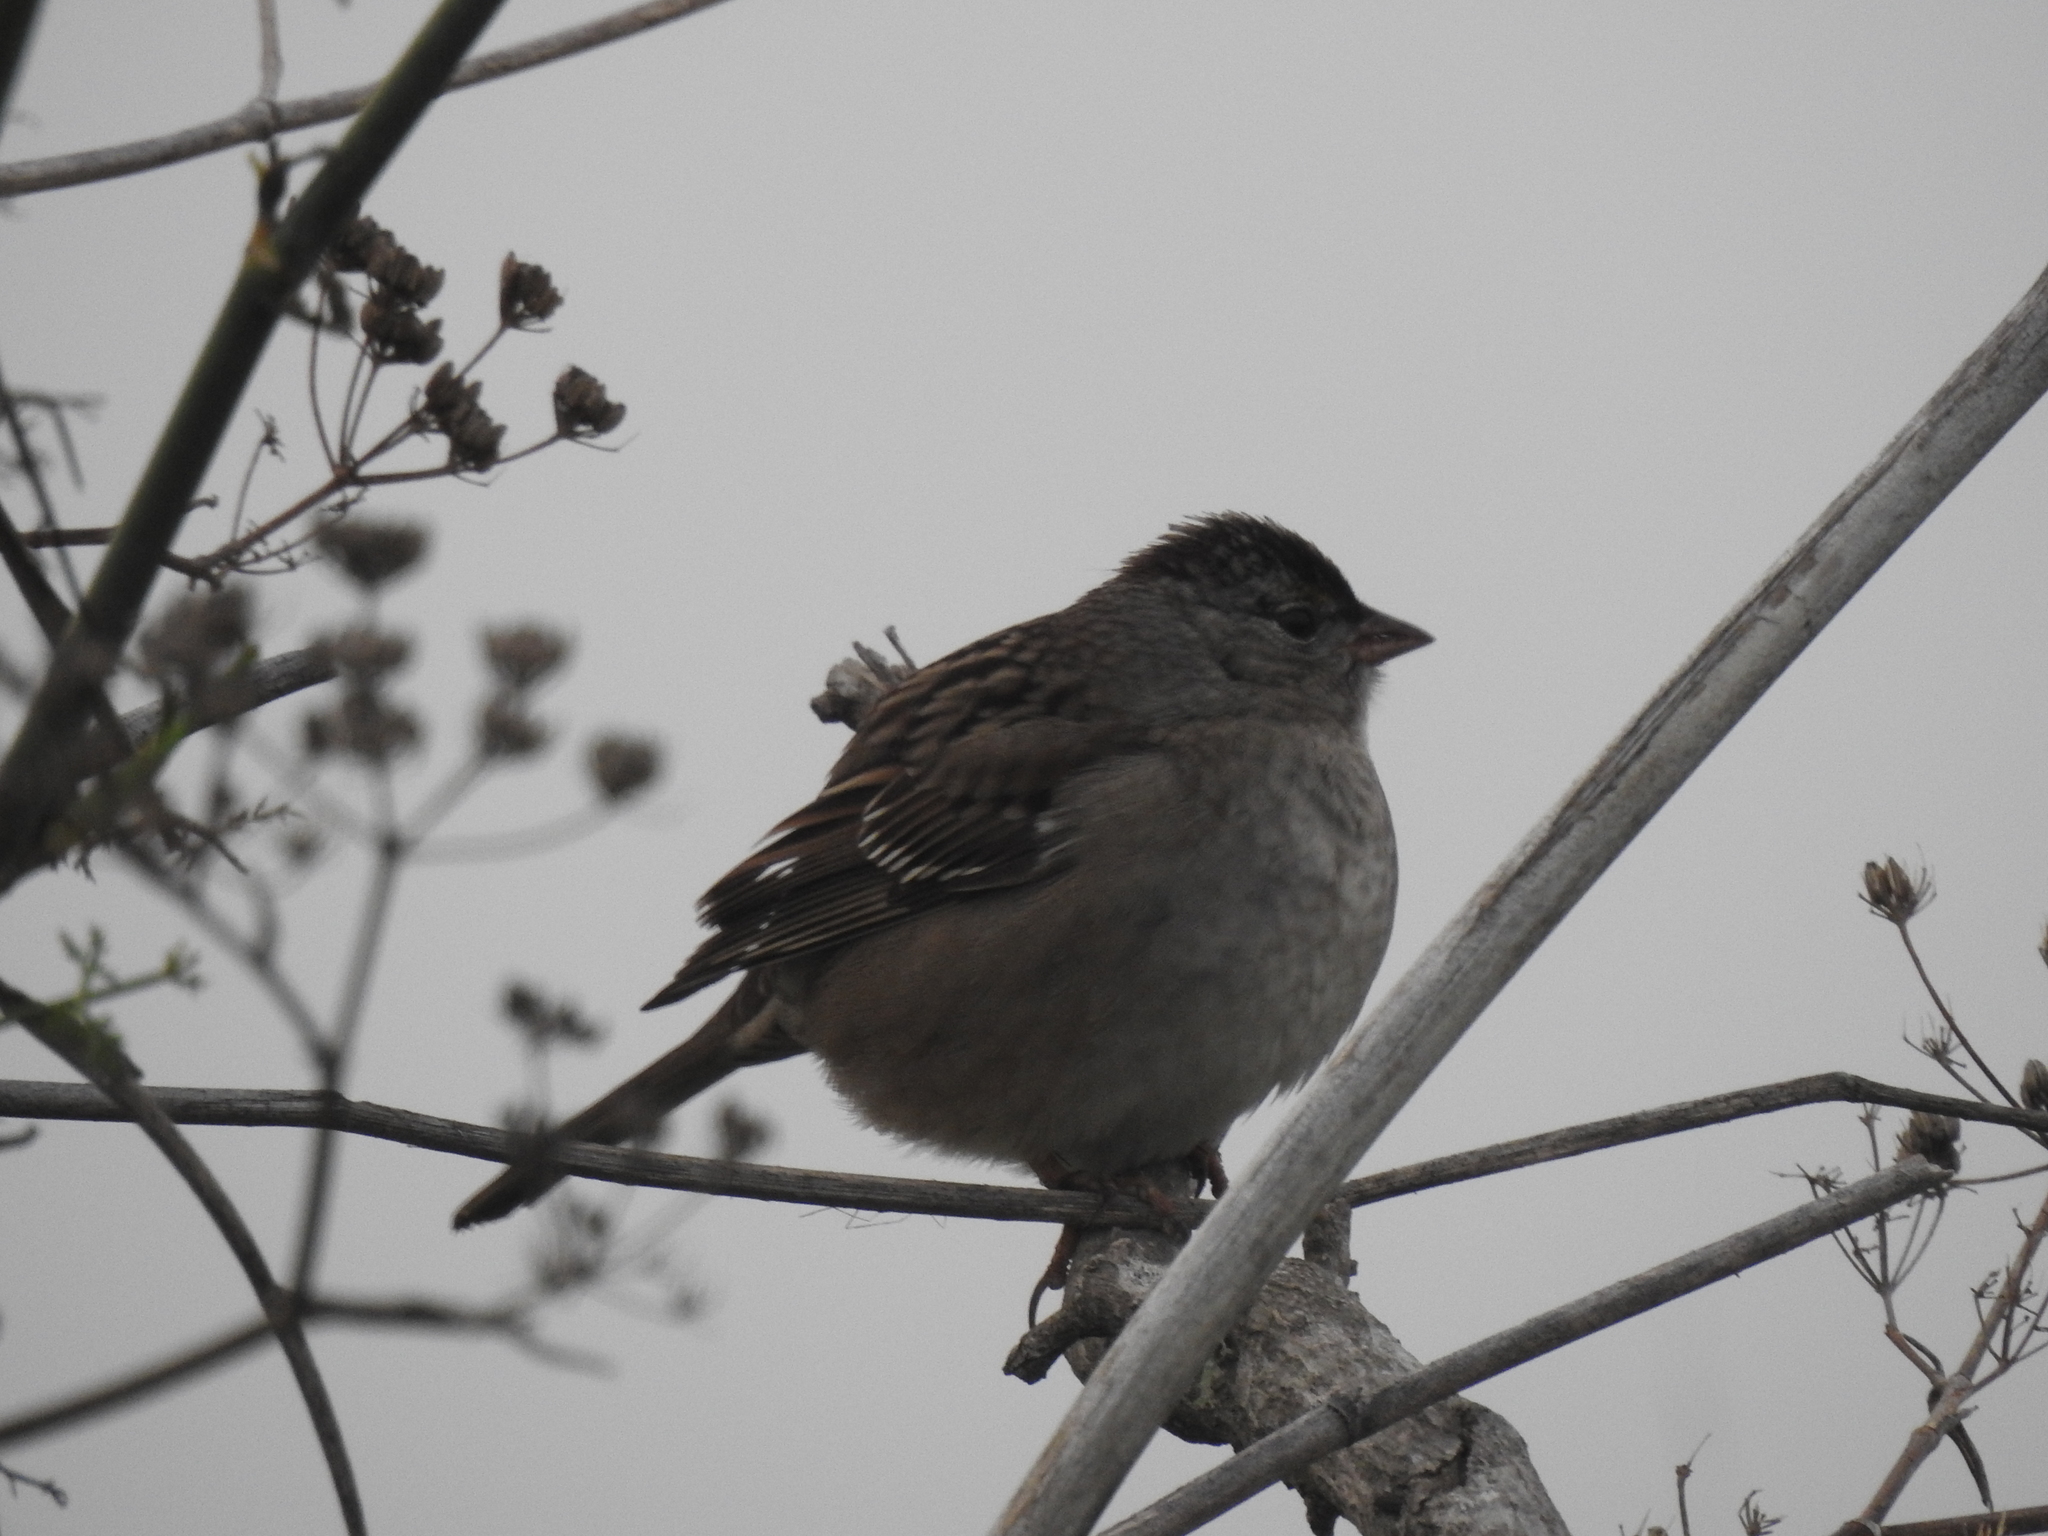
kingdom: Animalia
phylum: Chordata
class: Aves
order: Passeriformes
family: Passerellidae
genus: Zonotrichia
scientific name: Zonotrichia atricapilla
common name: Golden-crowned sparrow
